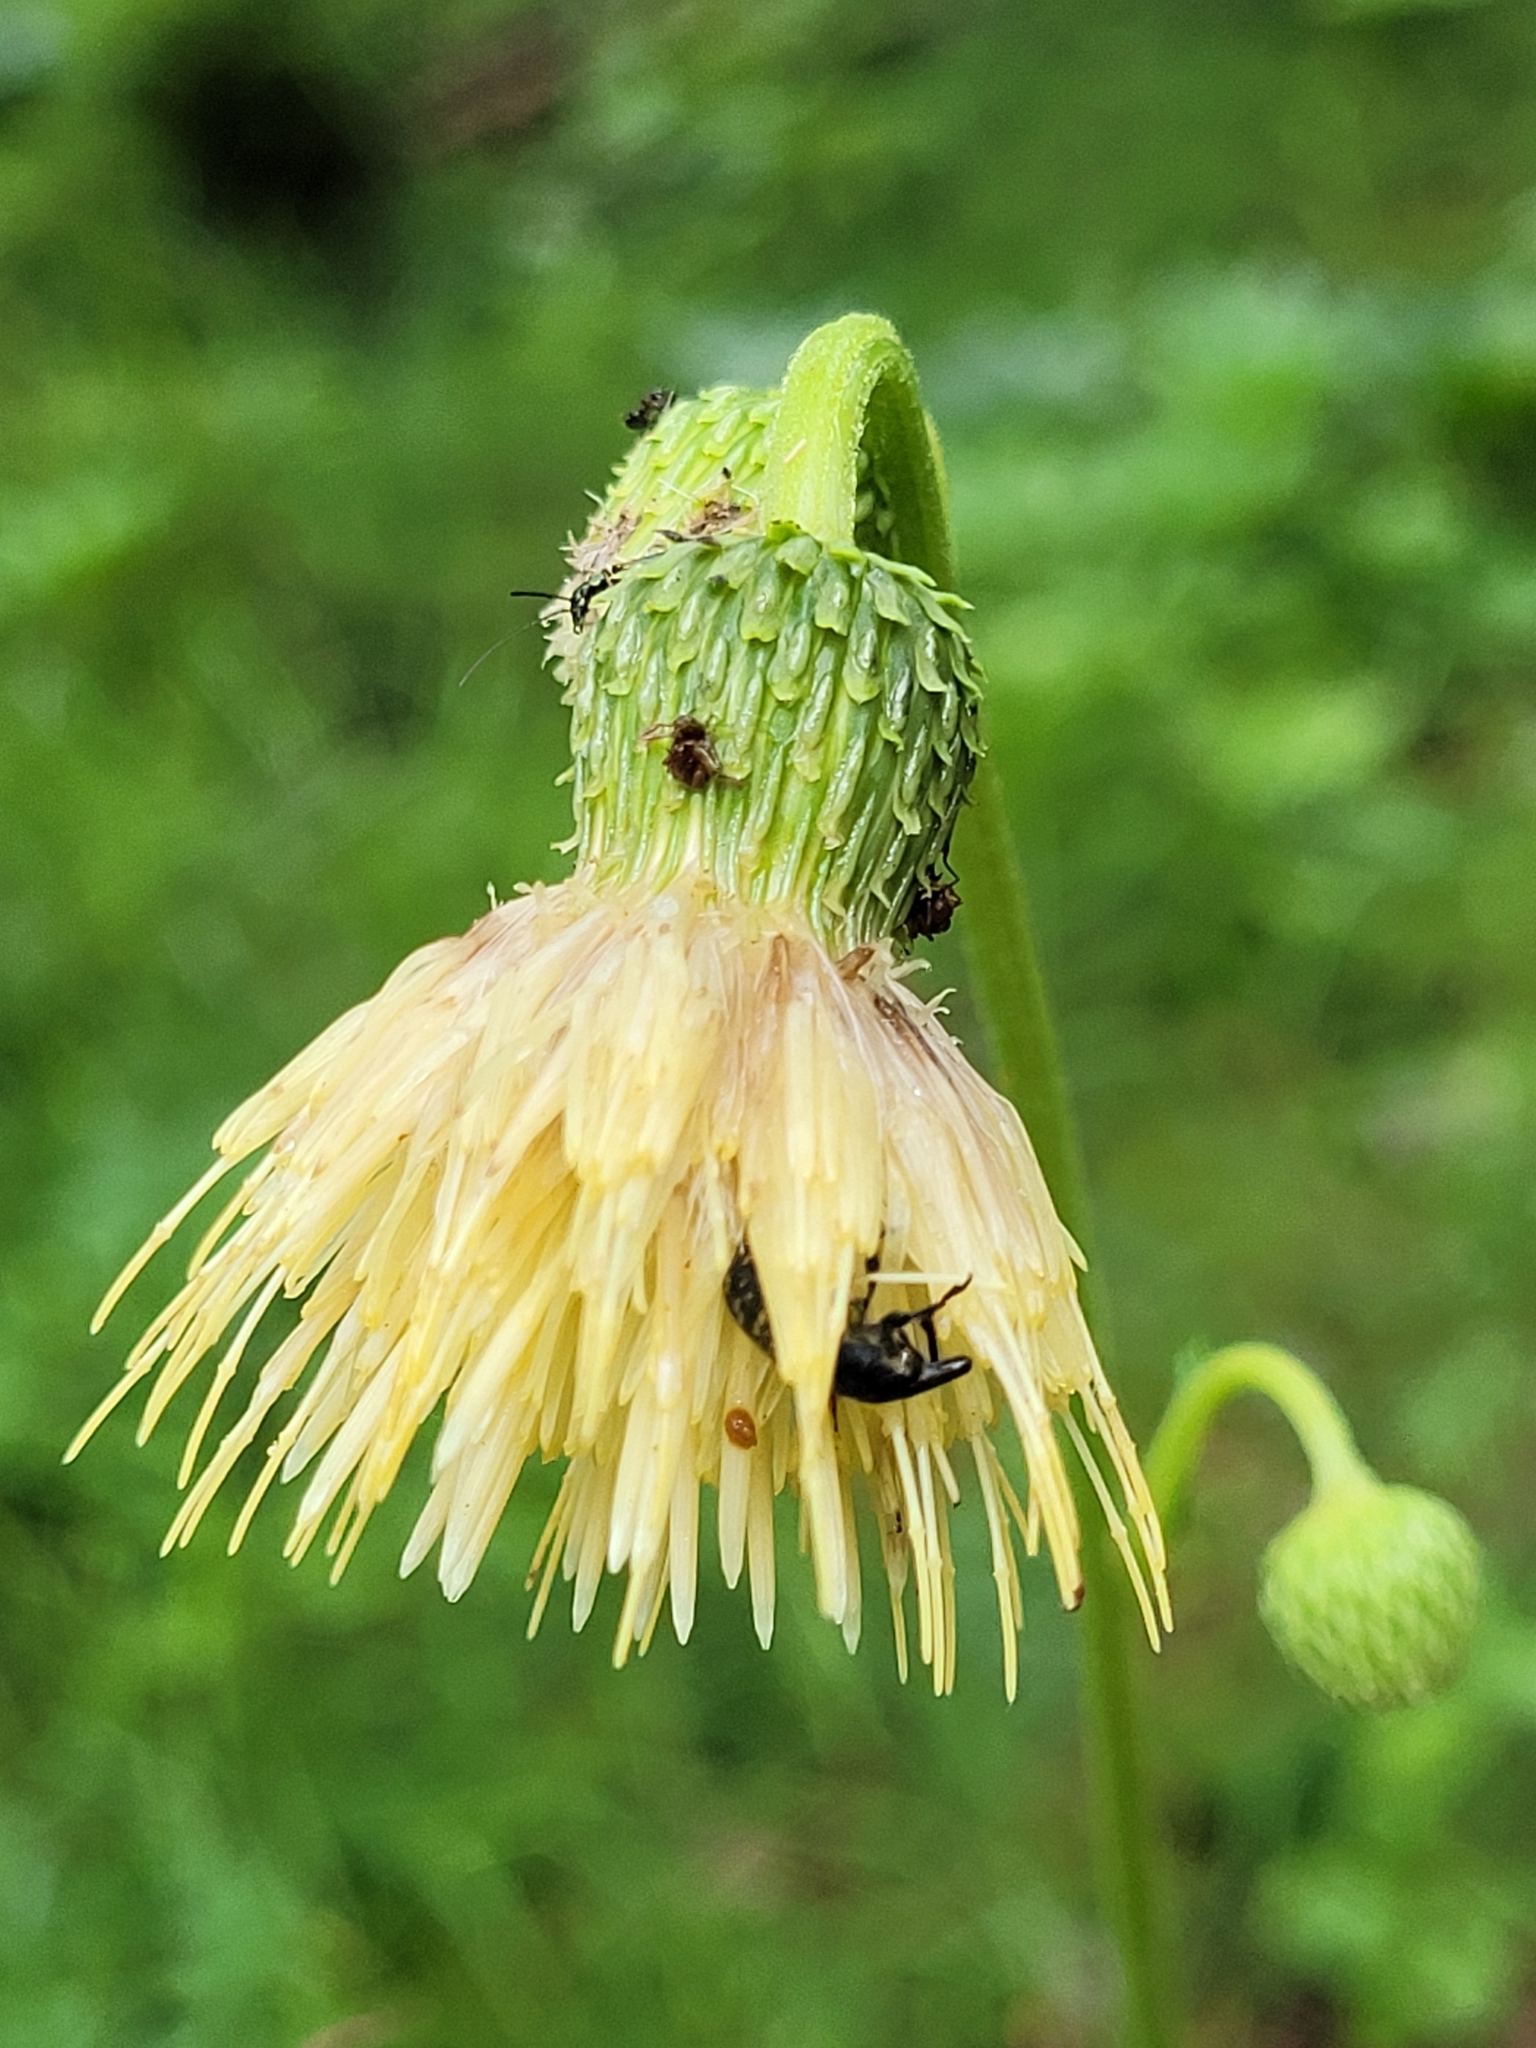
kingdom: Plantae
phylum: Tracheophyta
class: Magnoliopsida
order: Asterales
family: Asteraceae
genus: Cirsium
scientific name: Cirsium erisithales
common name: Yellow thistle
